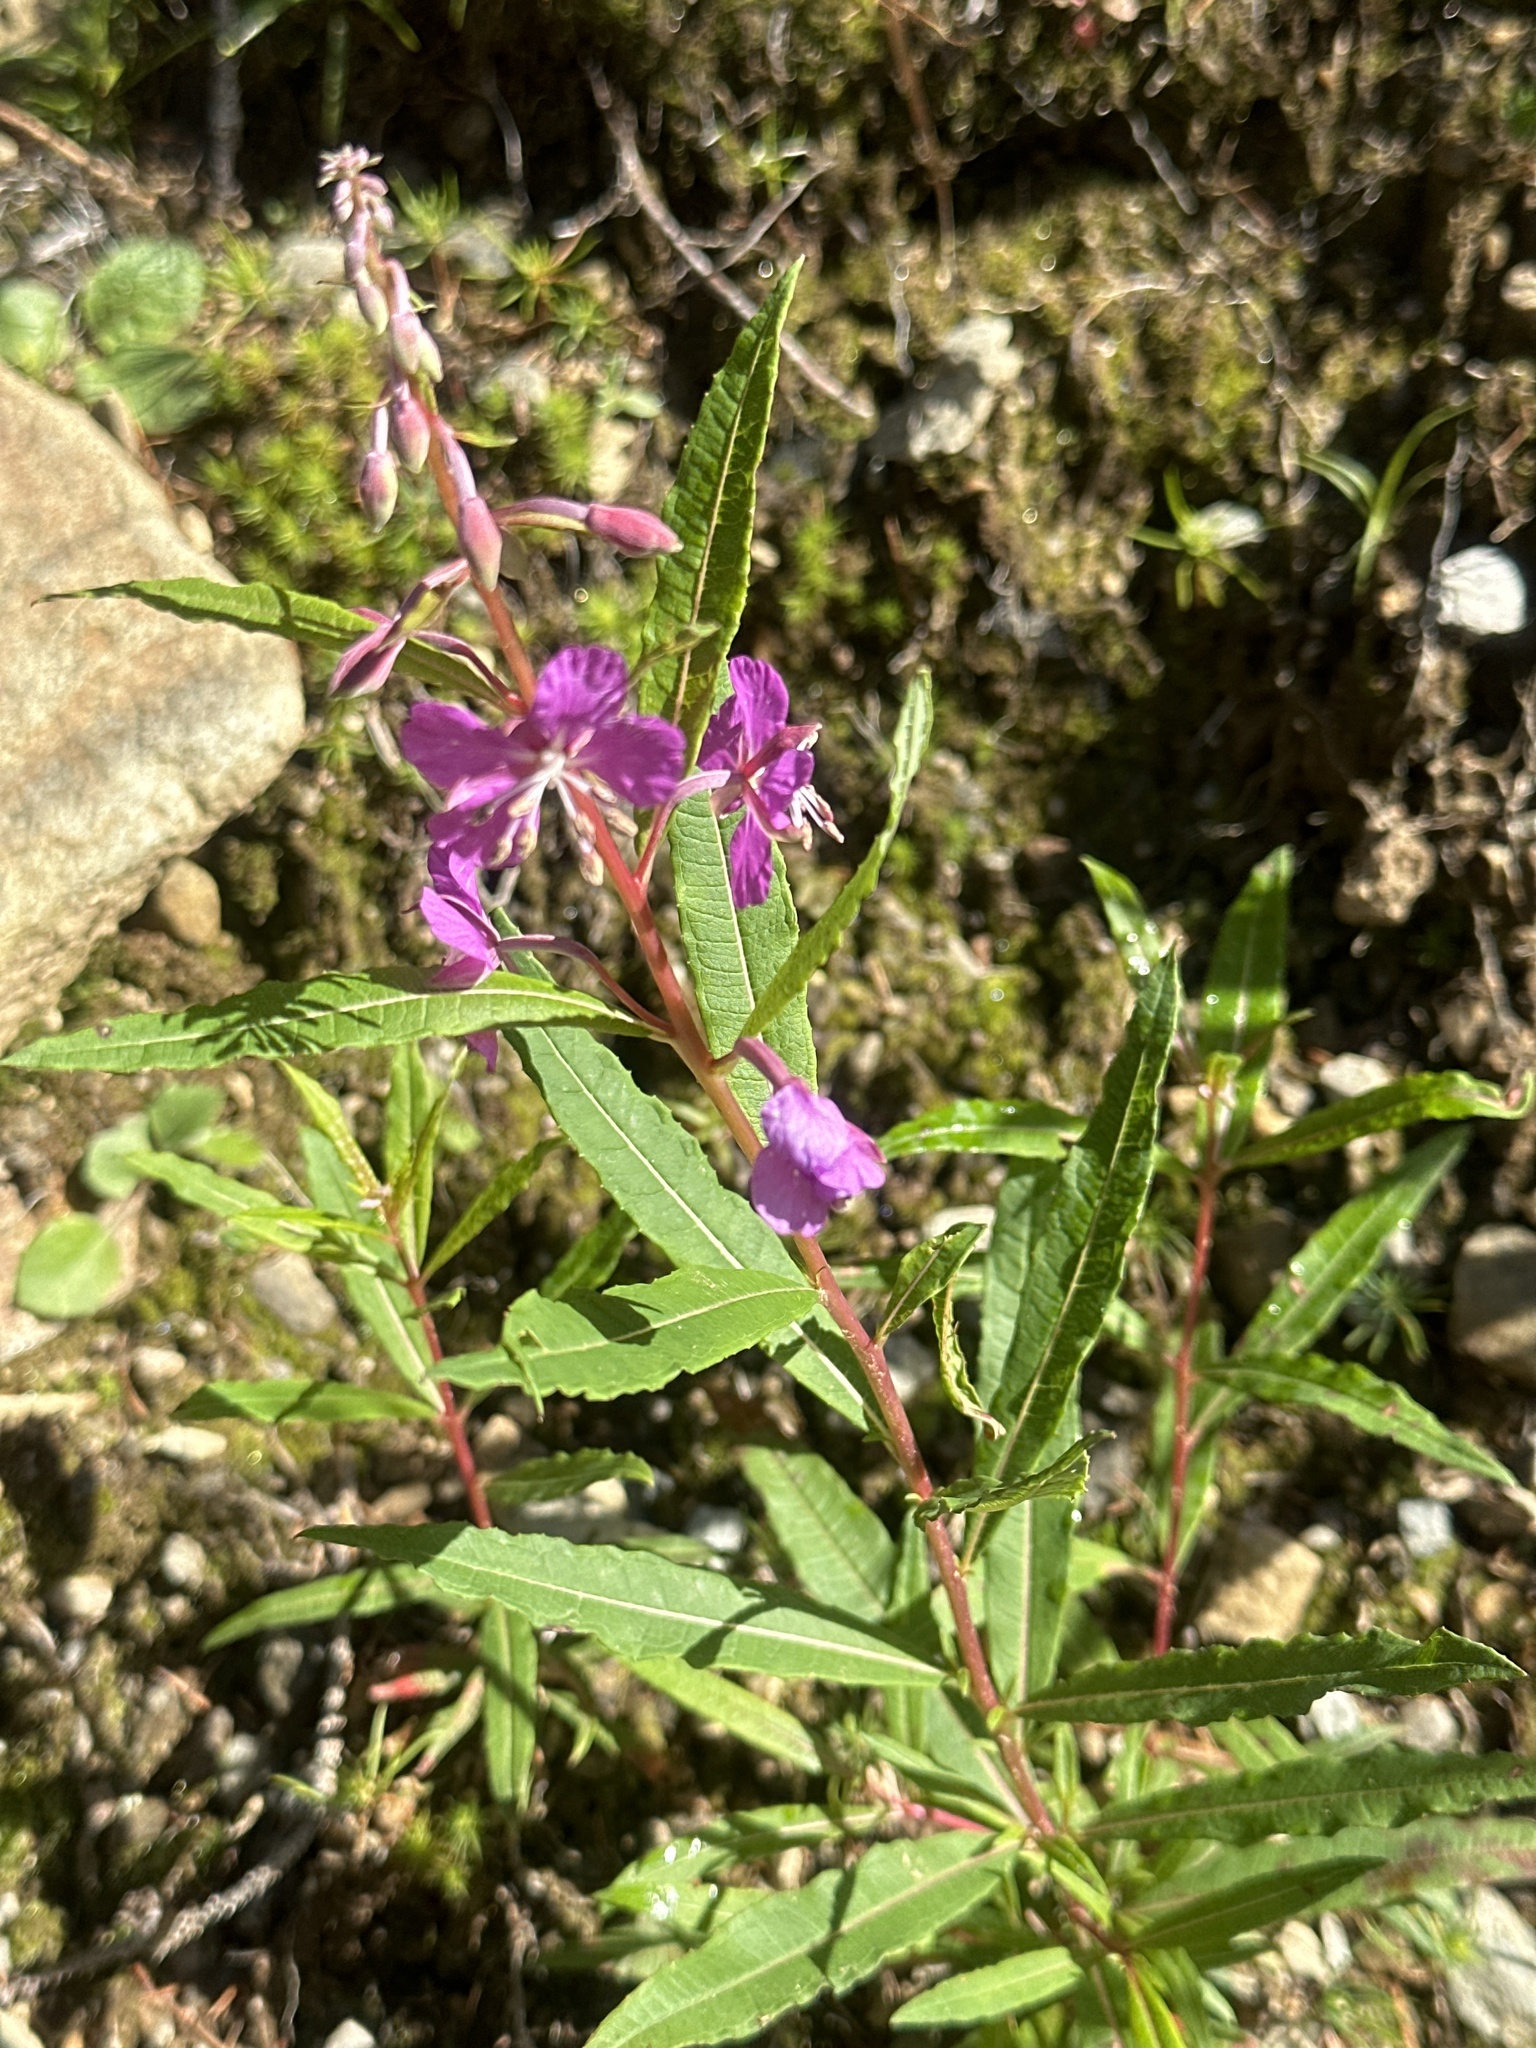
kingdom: Plantae
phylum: Tracheophyta
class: Magnoliopsida
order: Myrtales
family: Onagraceae
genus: Chamaenerion
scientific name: Chamaenerion angustifolium
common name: Fireweed
